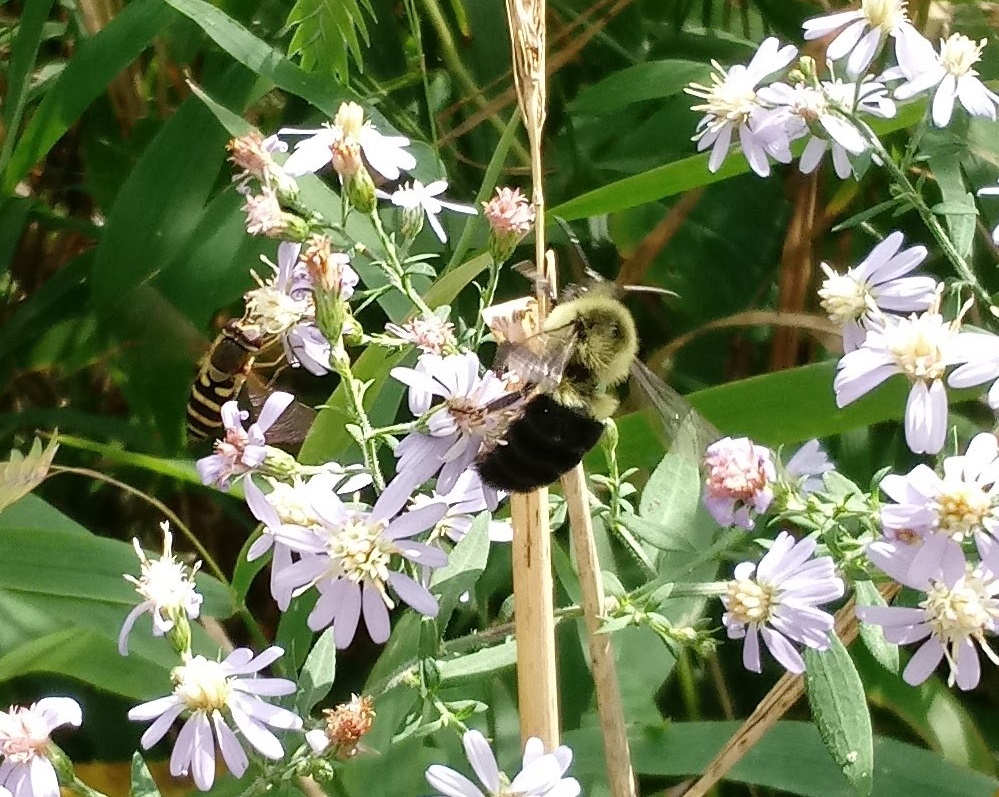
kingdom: Animalia
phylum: Arthropoda
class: Insecta
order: Hymenoptera
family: Apidae
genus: Bombus
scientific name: Bombus impatiens
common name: Common eastern bumble bee
